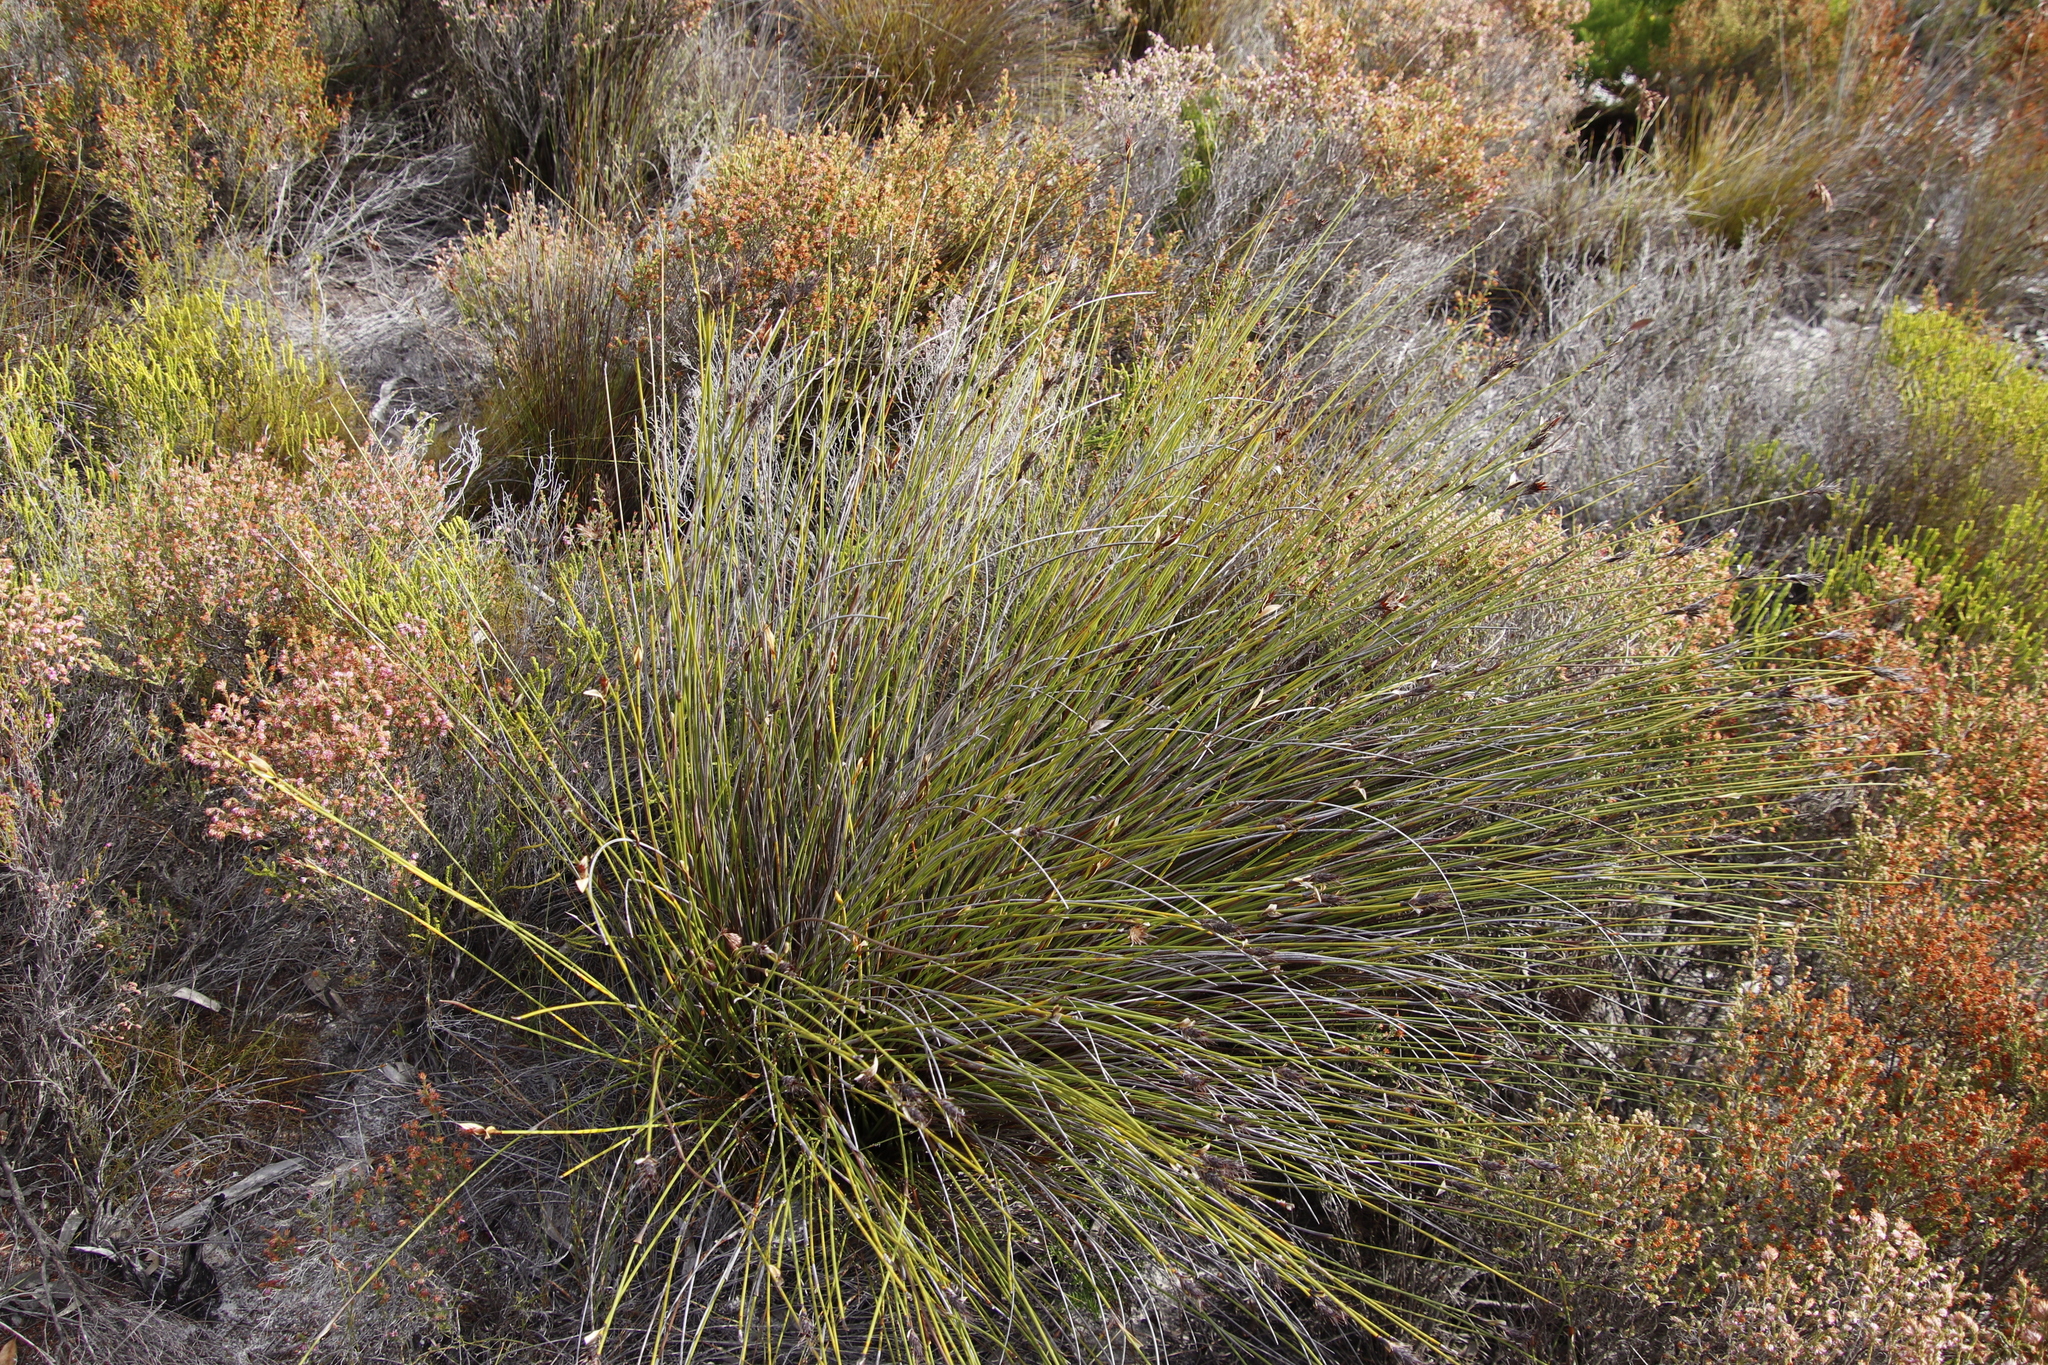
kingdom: Plantae
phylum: Tracheophyta
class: Liliopsida
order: Poales
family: Restionaceae
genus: Hypodiscus
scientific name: Hypodiscus alboaristatus
